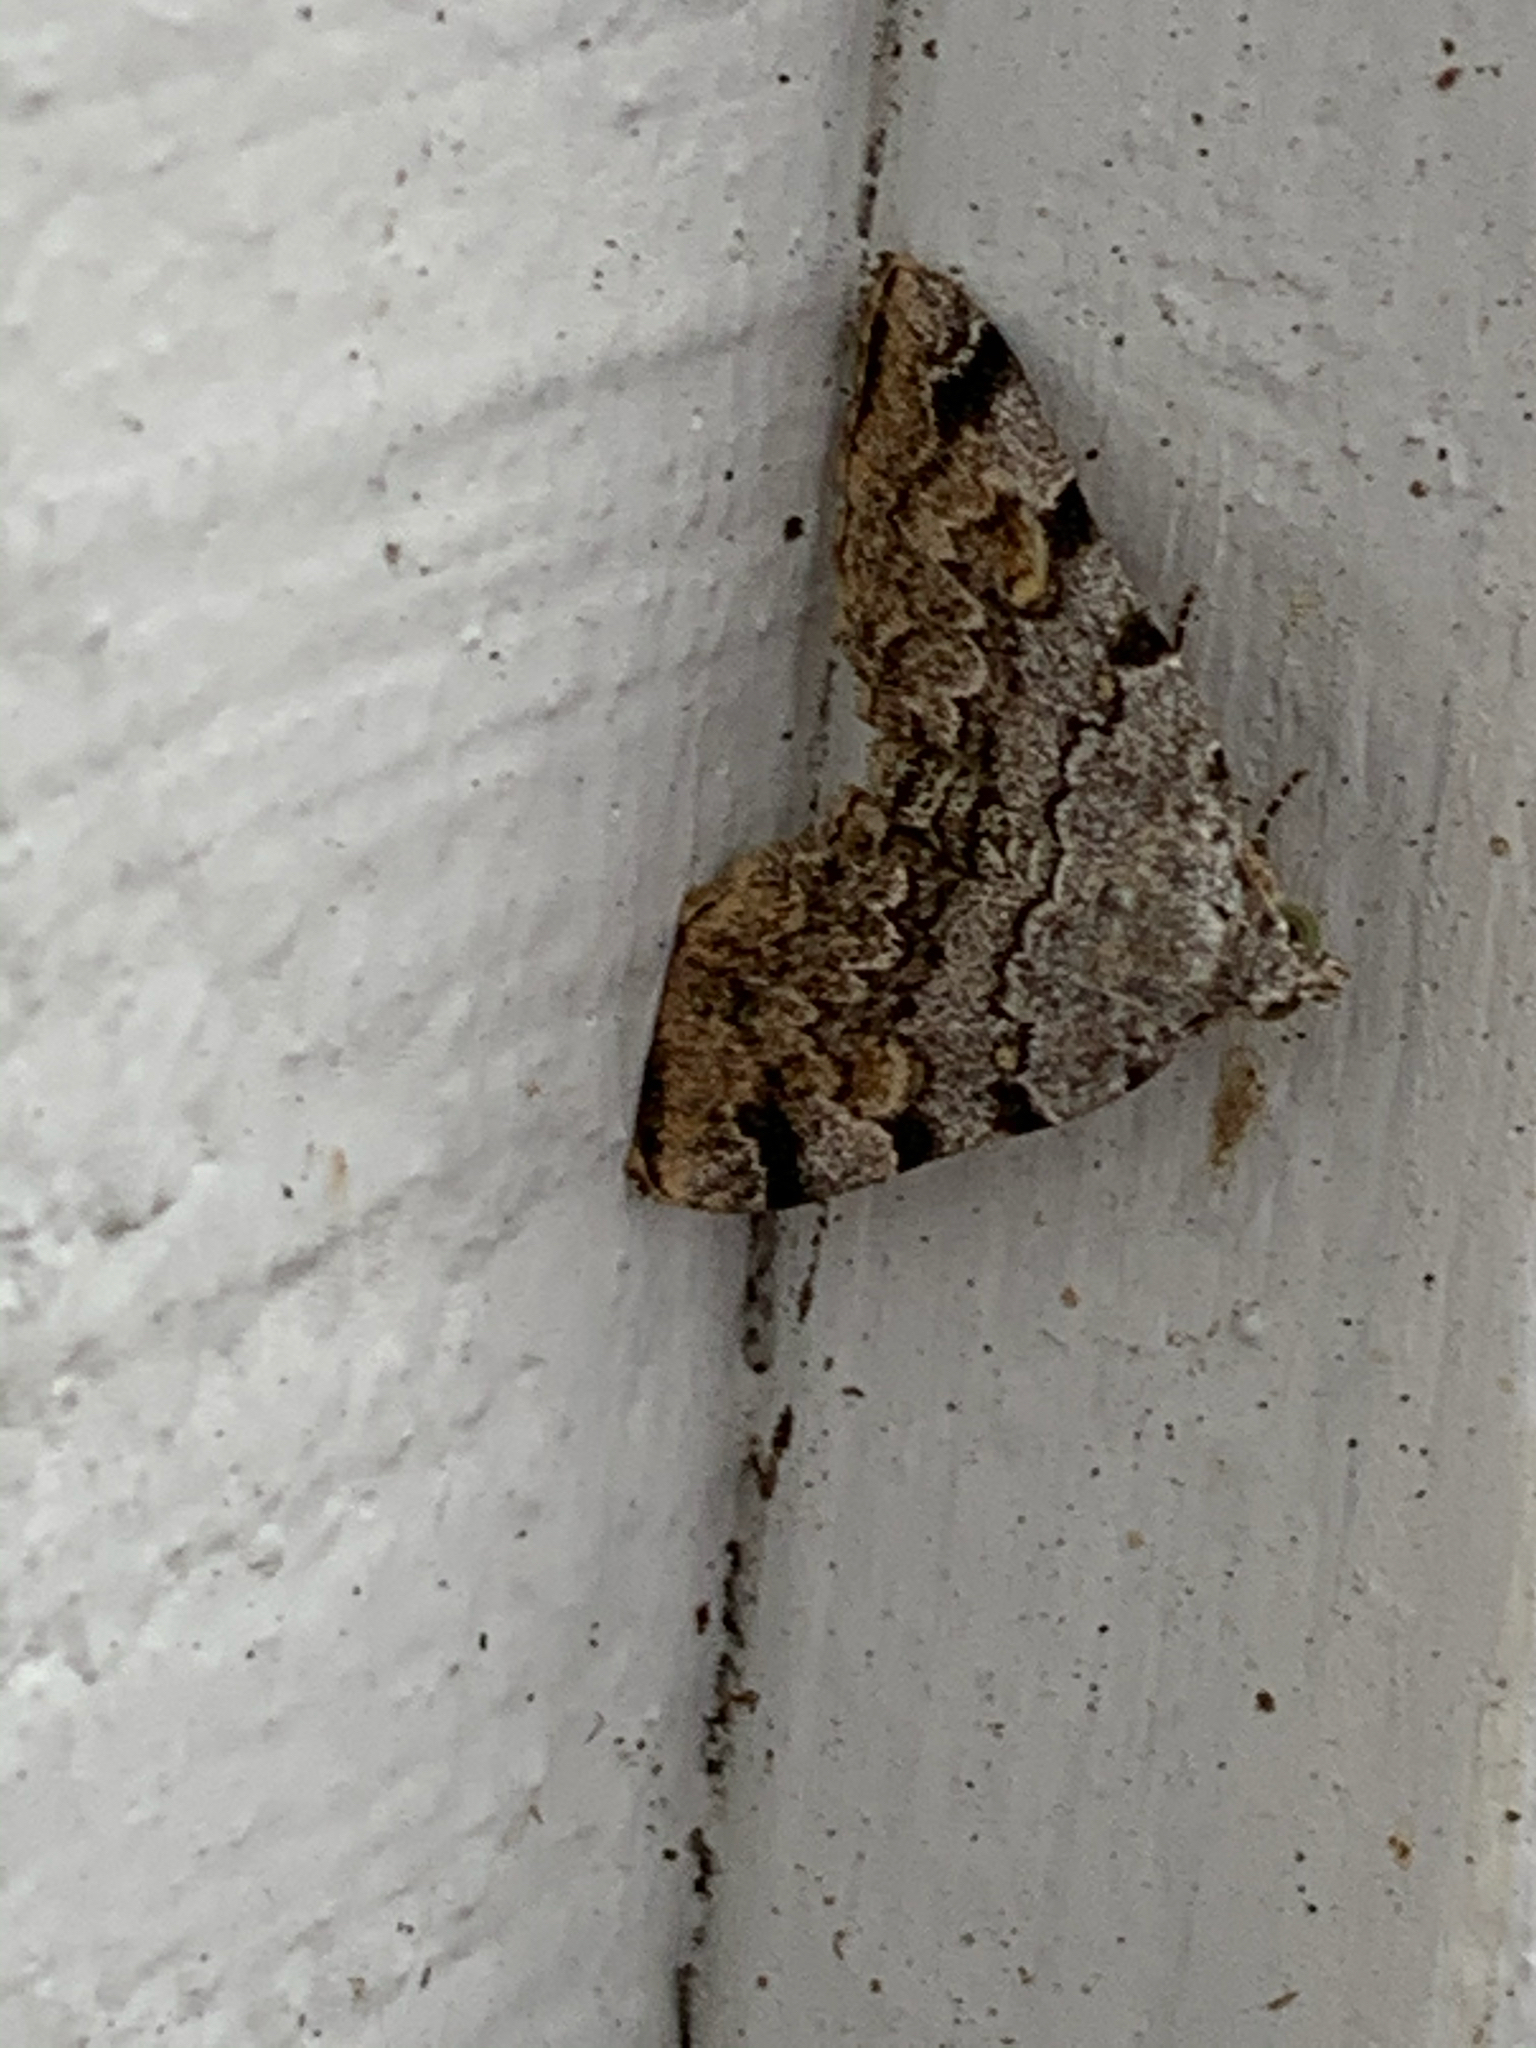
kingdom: Animalia
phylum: Arthropoda
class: Insecta
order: Lepidoptera
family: Erebidae
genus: Idia
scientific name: Idia americalis
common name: American idia moth
